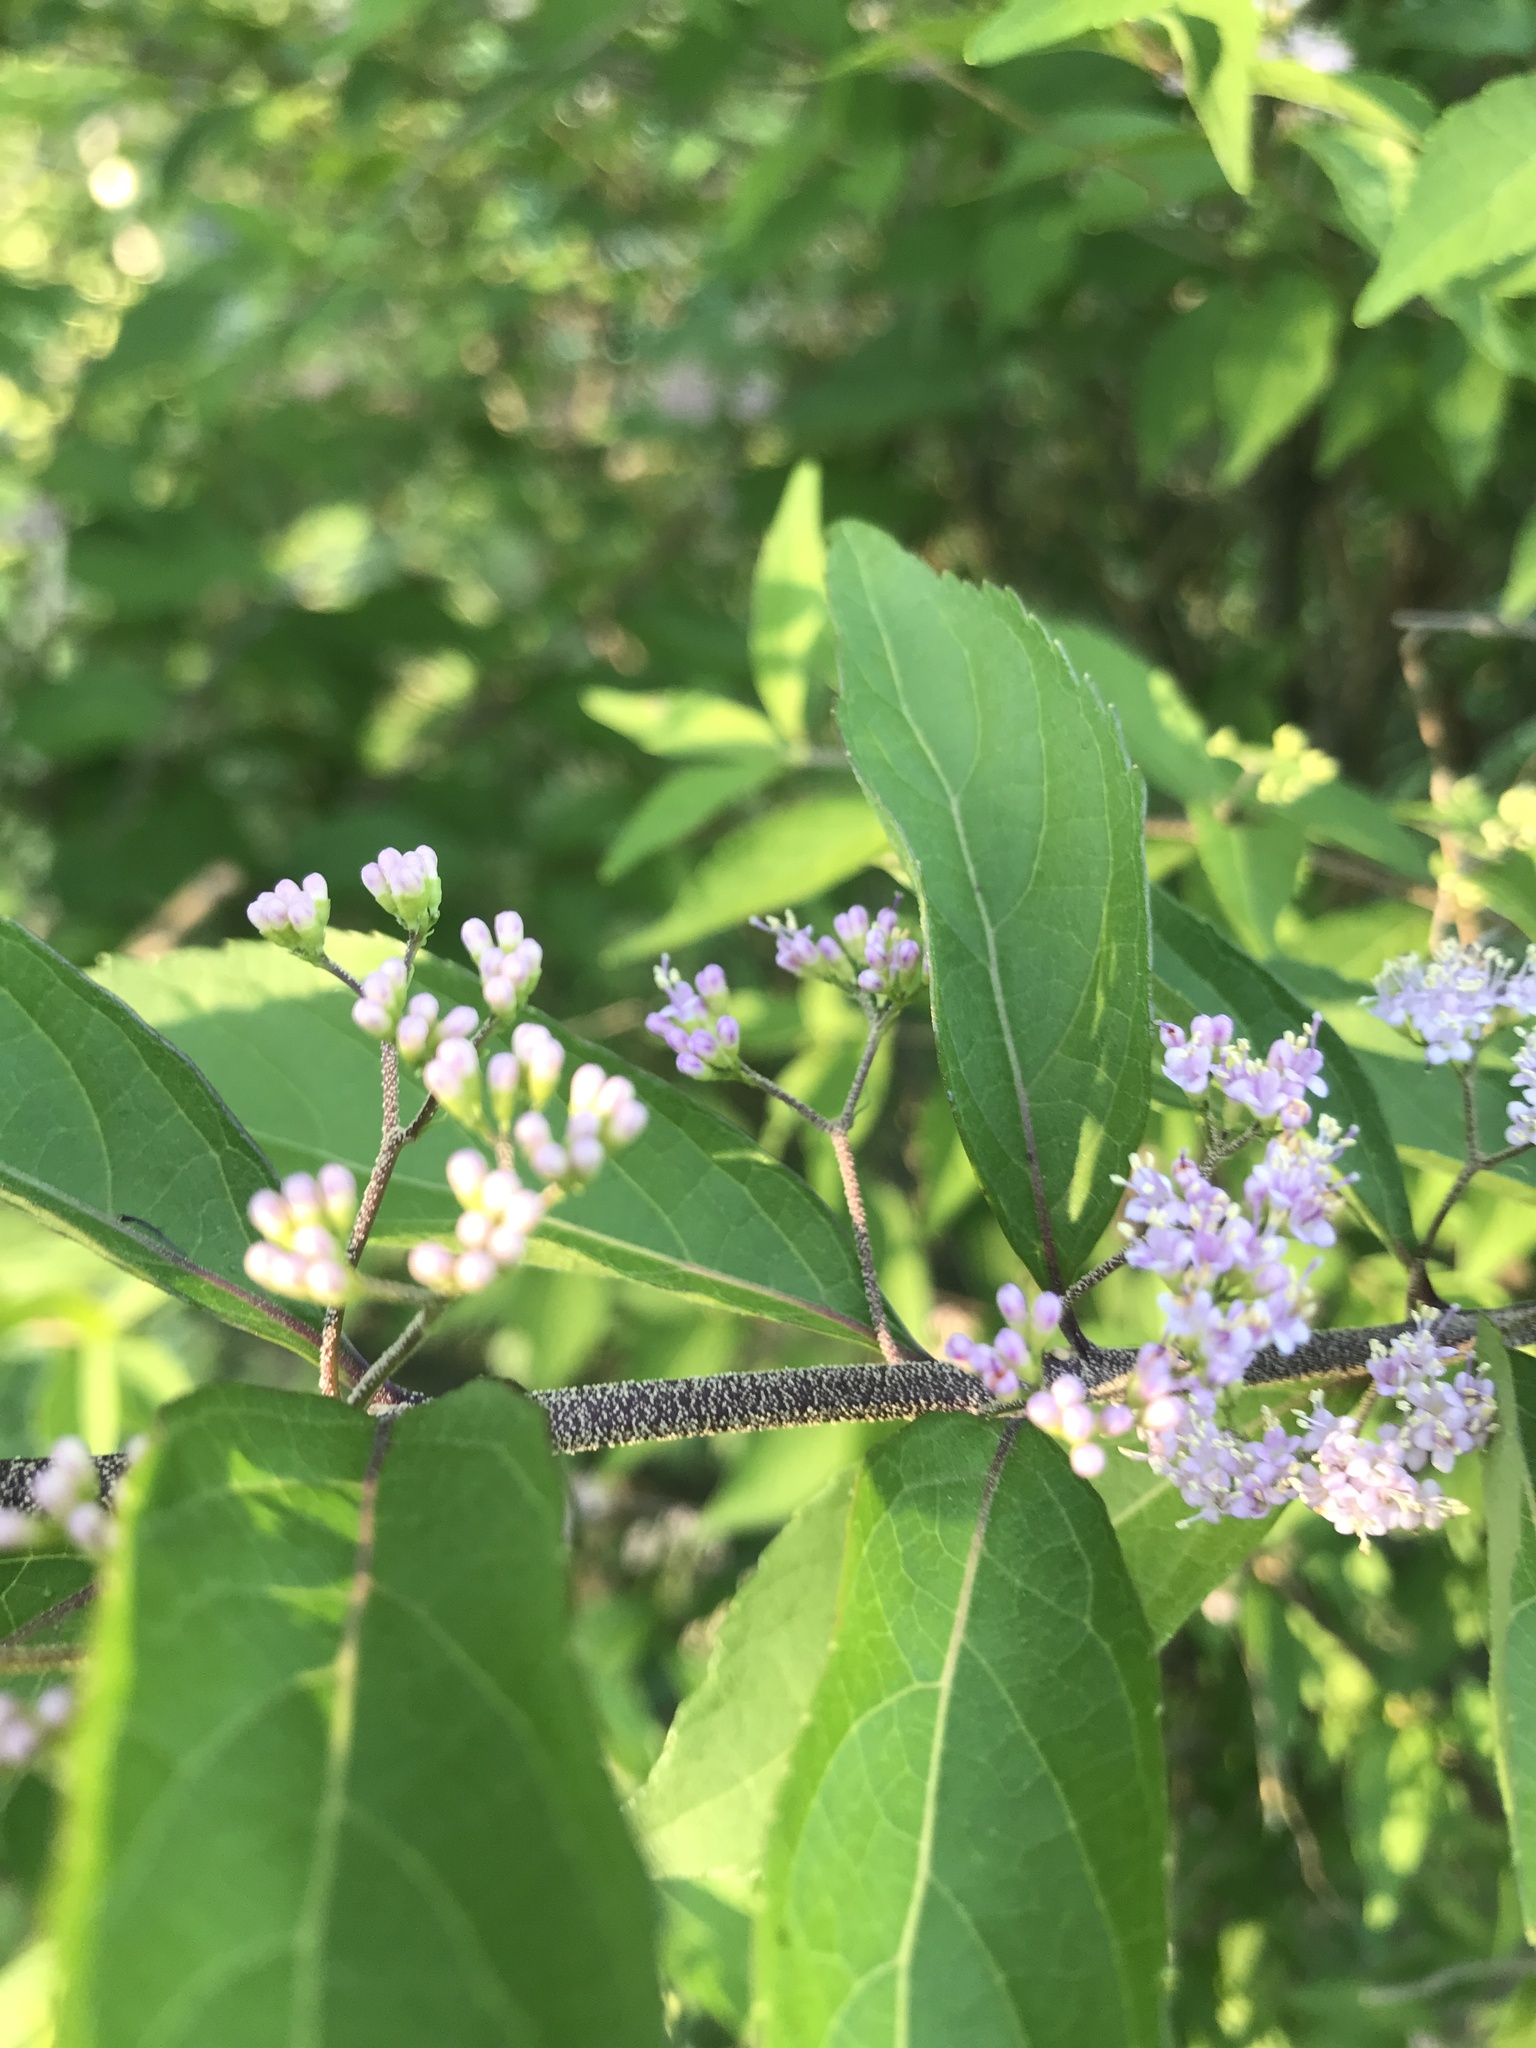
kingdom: Plantae
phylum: Tracheophyta
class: Magnoliopsida
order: Lamiales
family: Lamiaceae
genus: Callicarpa
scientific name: Callicarpa dichotoma
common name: Purple beauty-berry
